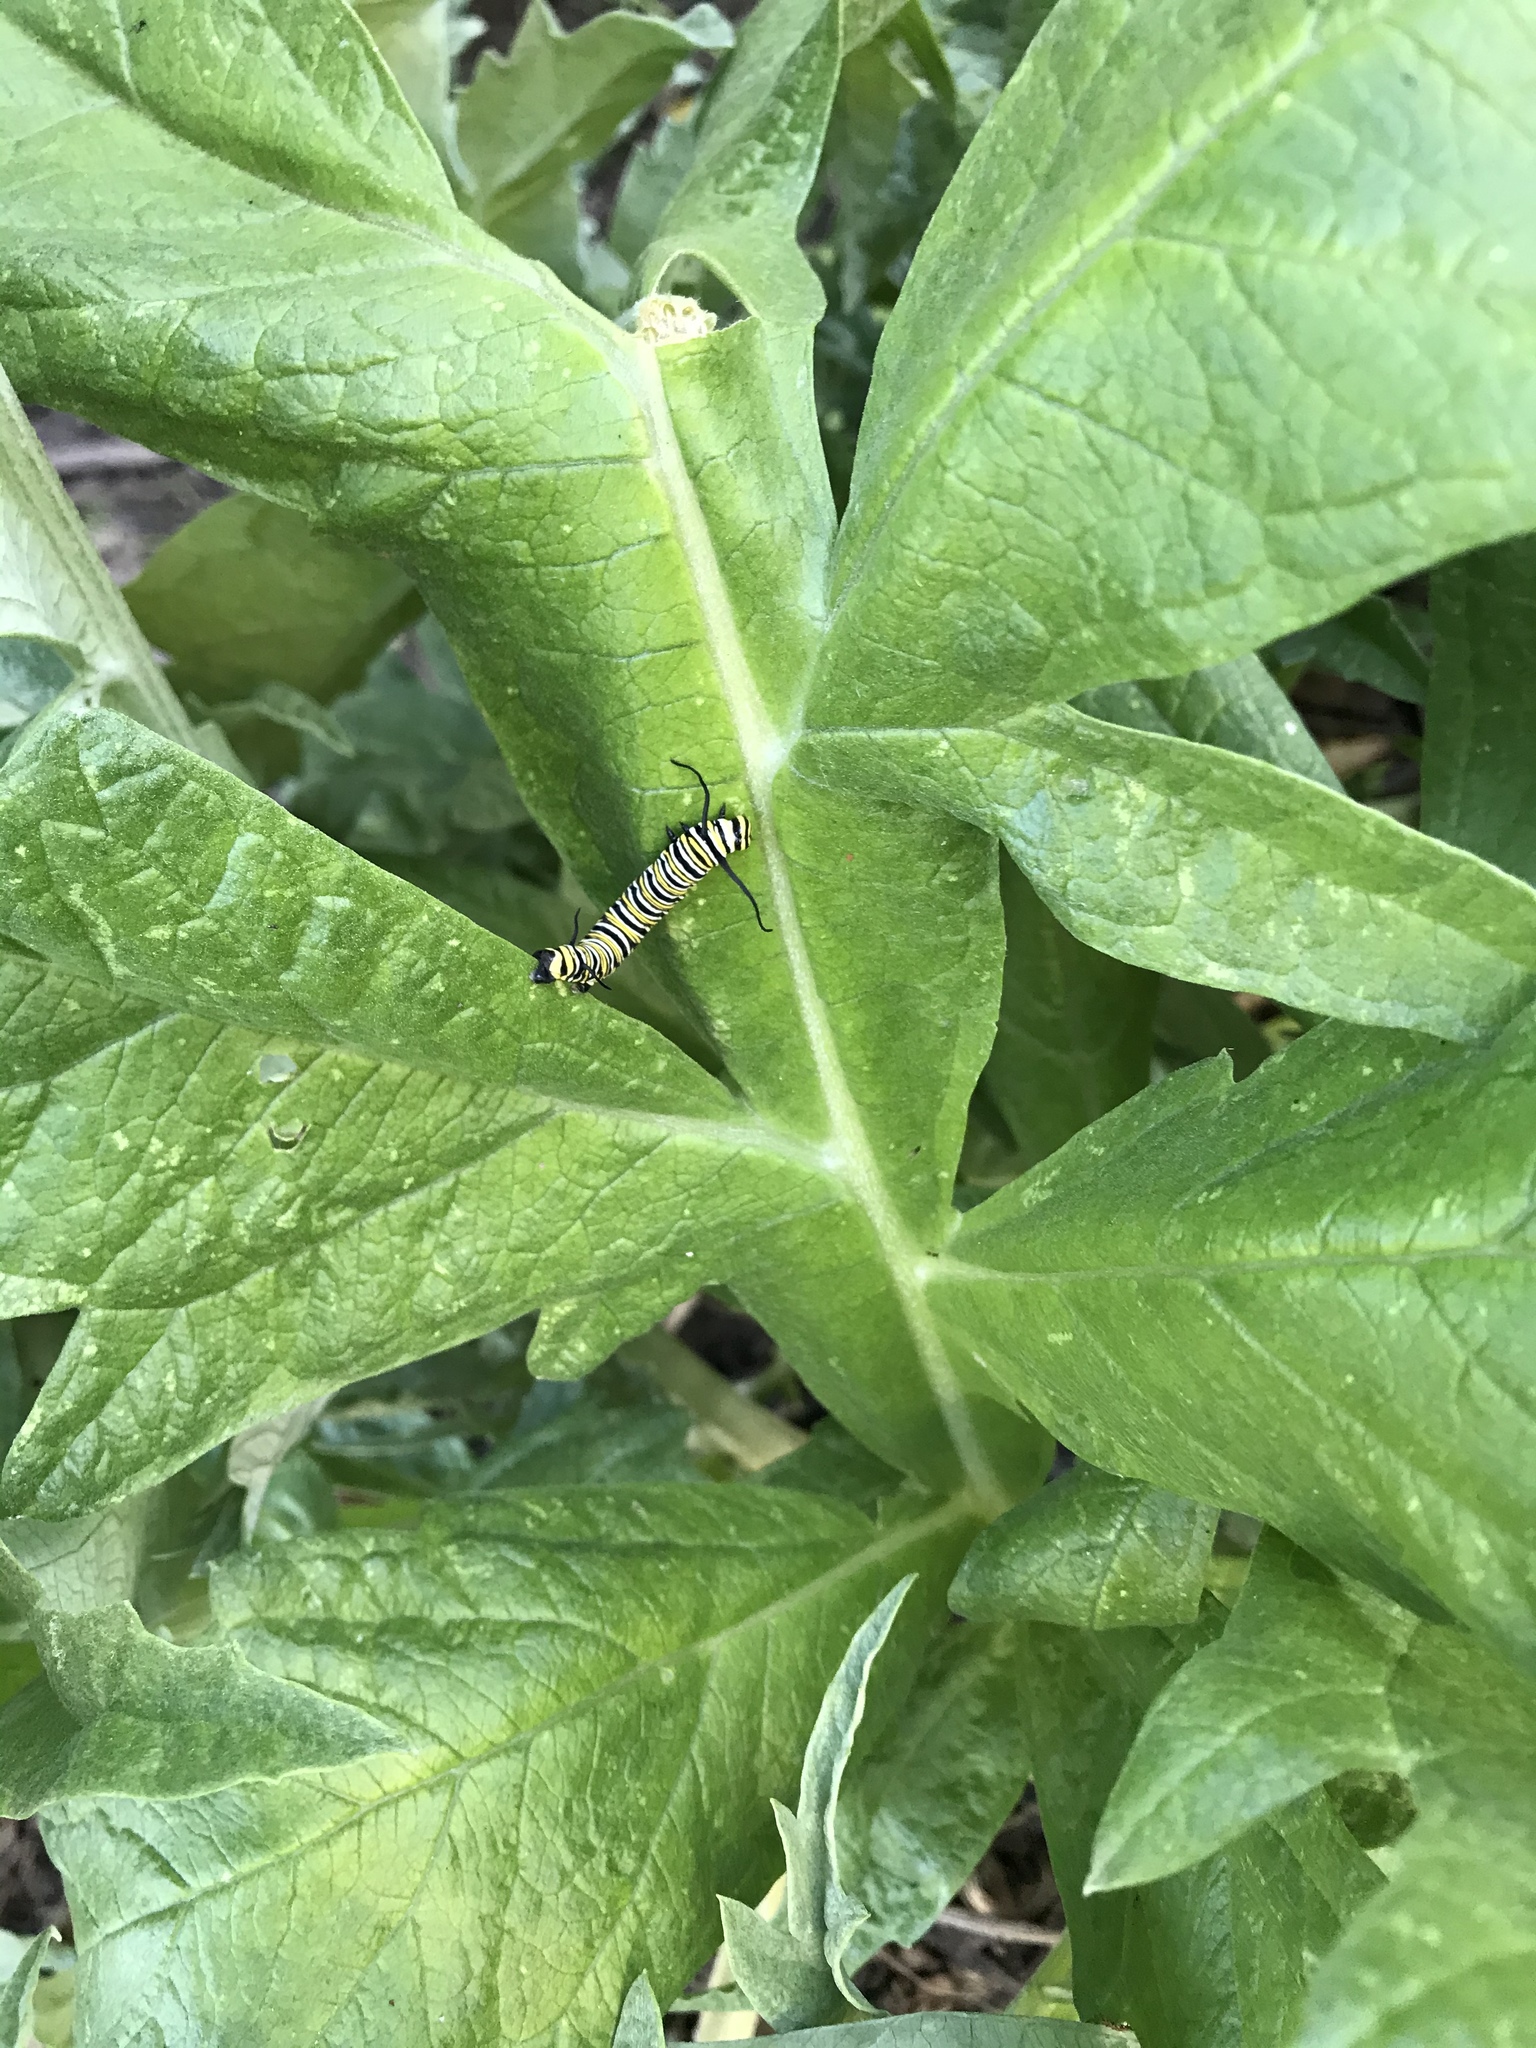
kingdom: Animalia
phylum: Arthropoda
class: Insecta
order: Lepidoptera
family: Nymphalidae
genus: Danaus
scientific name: Danaus plexippus
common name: Monarch
